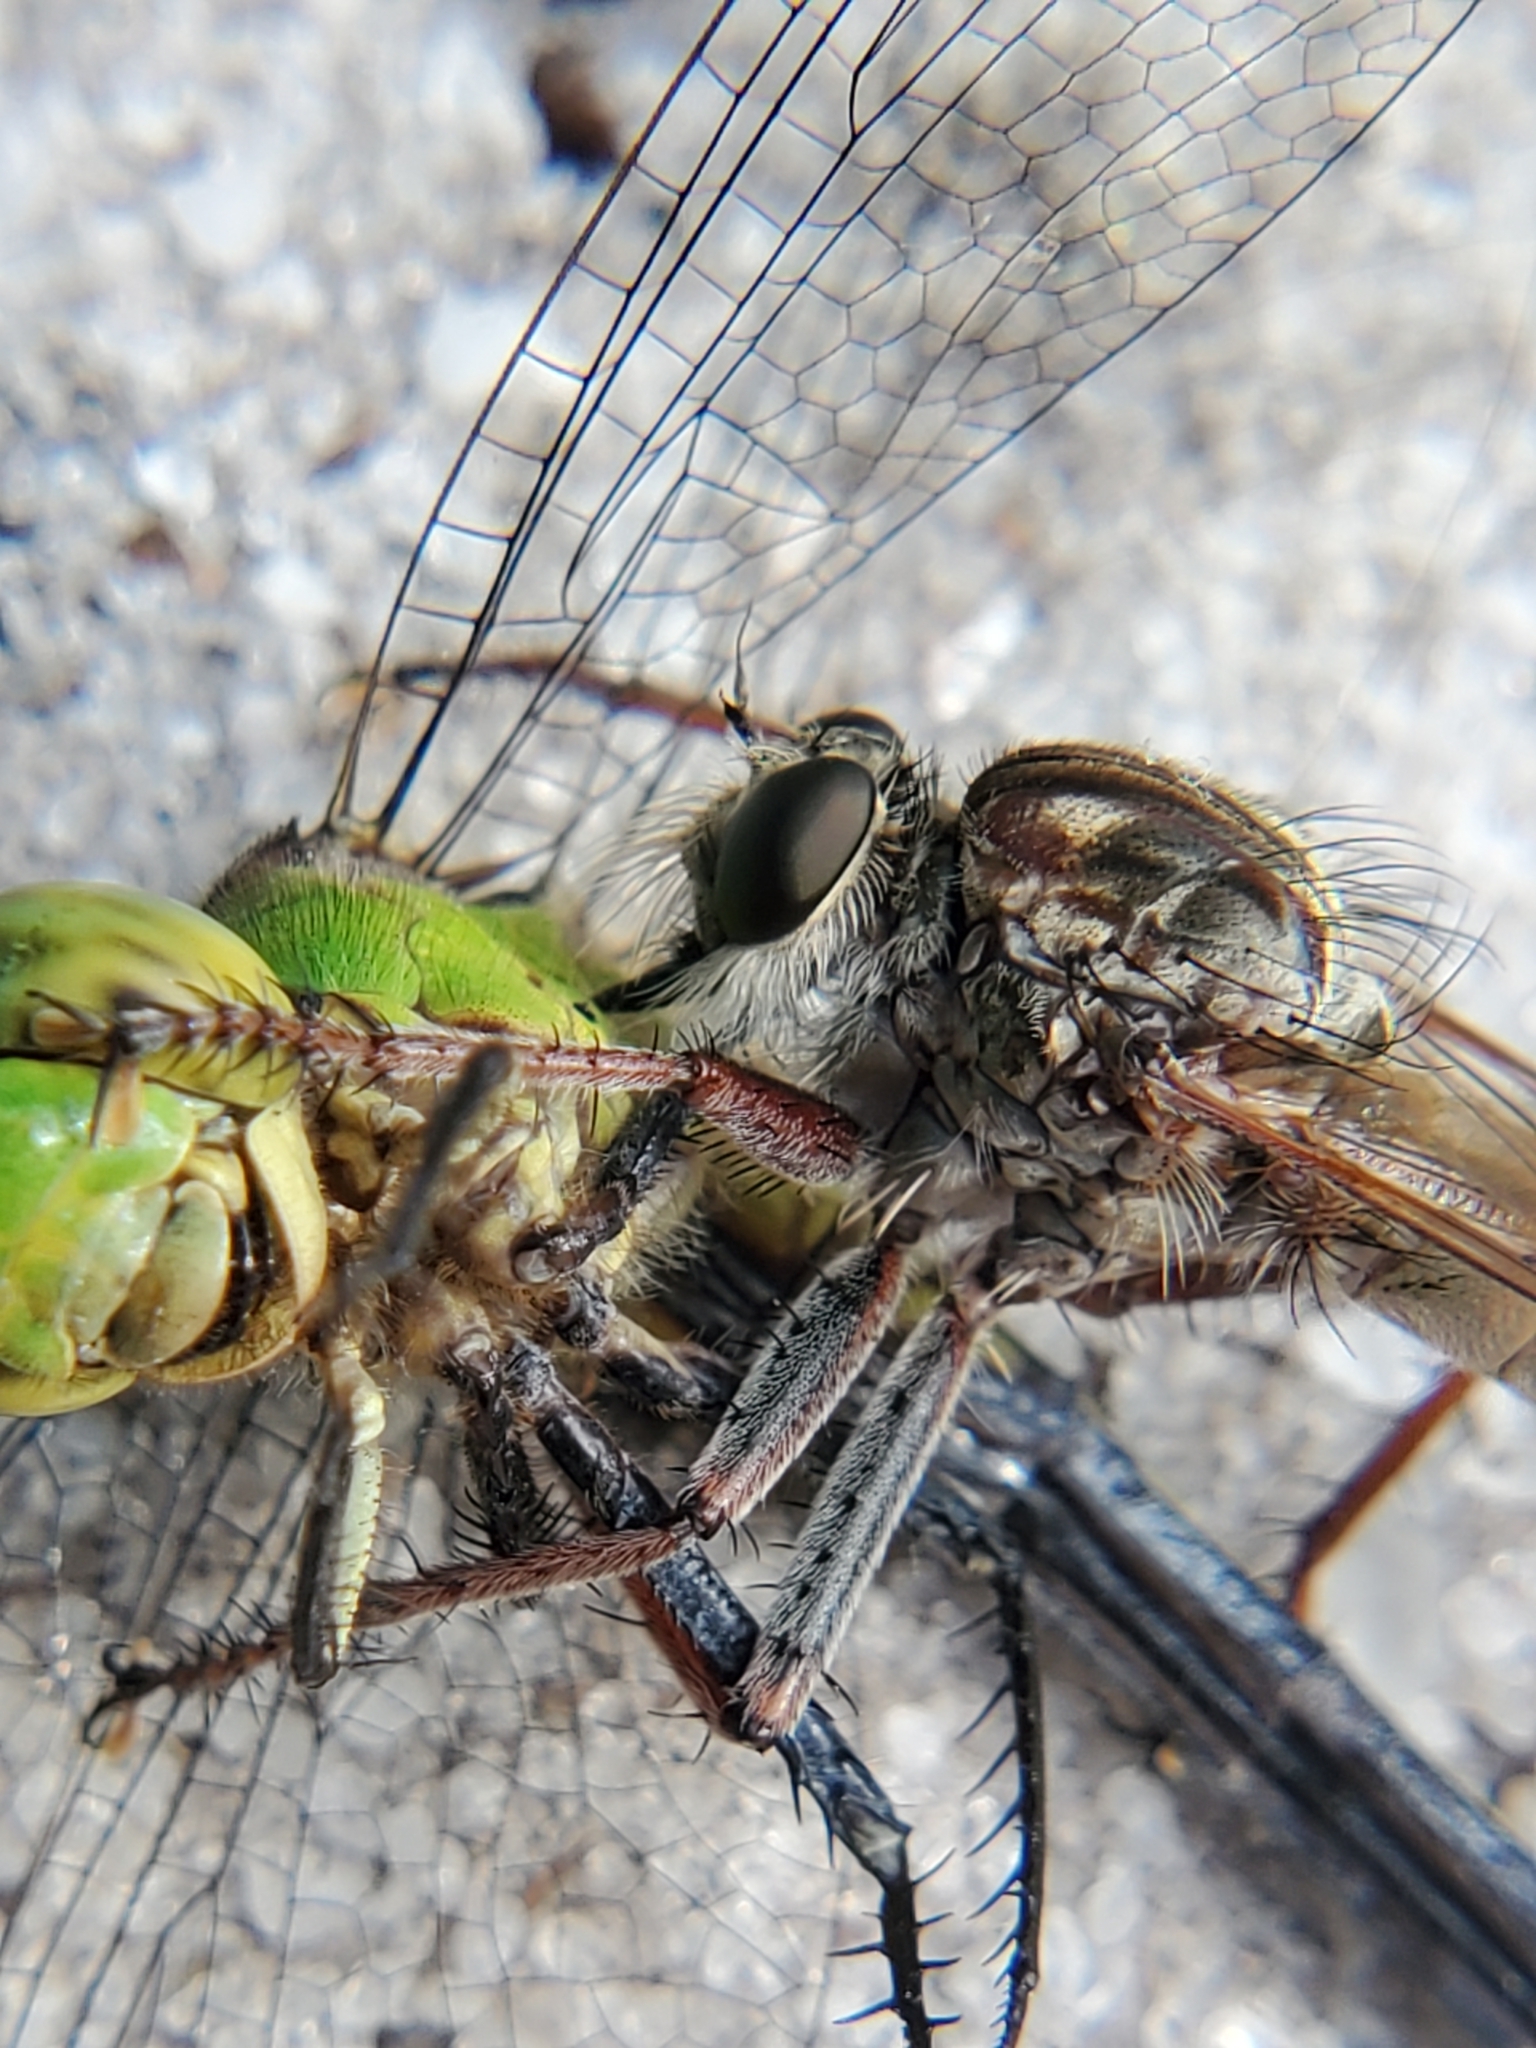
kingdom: Animalia
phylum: Arthropoda
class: Insecta
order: Diptera
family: Asilidae
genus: Proctacanthus
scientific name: Proctacanthus brevipennis
